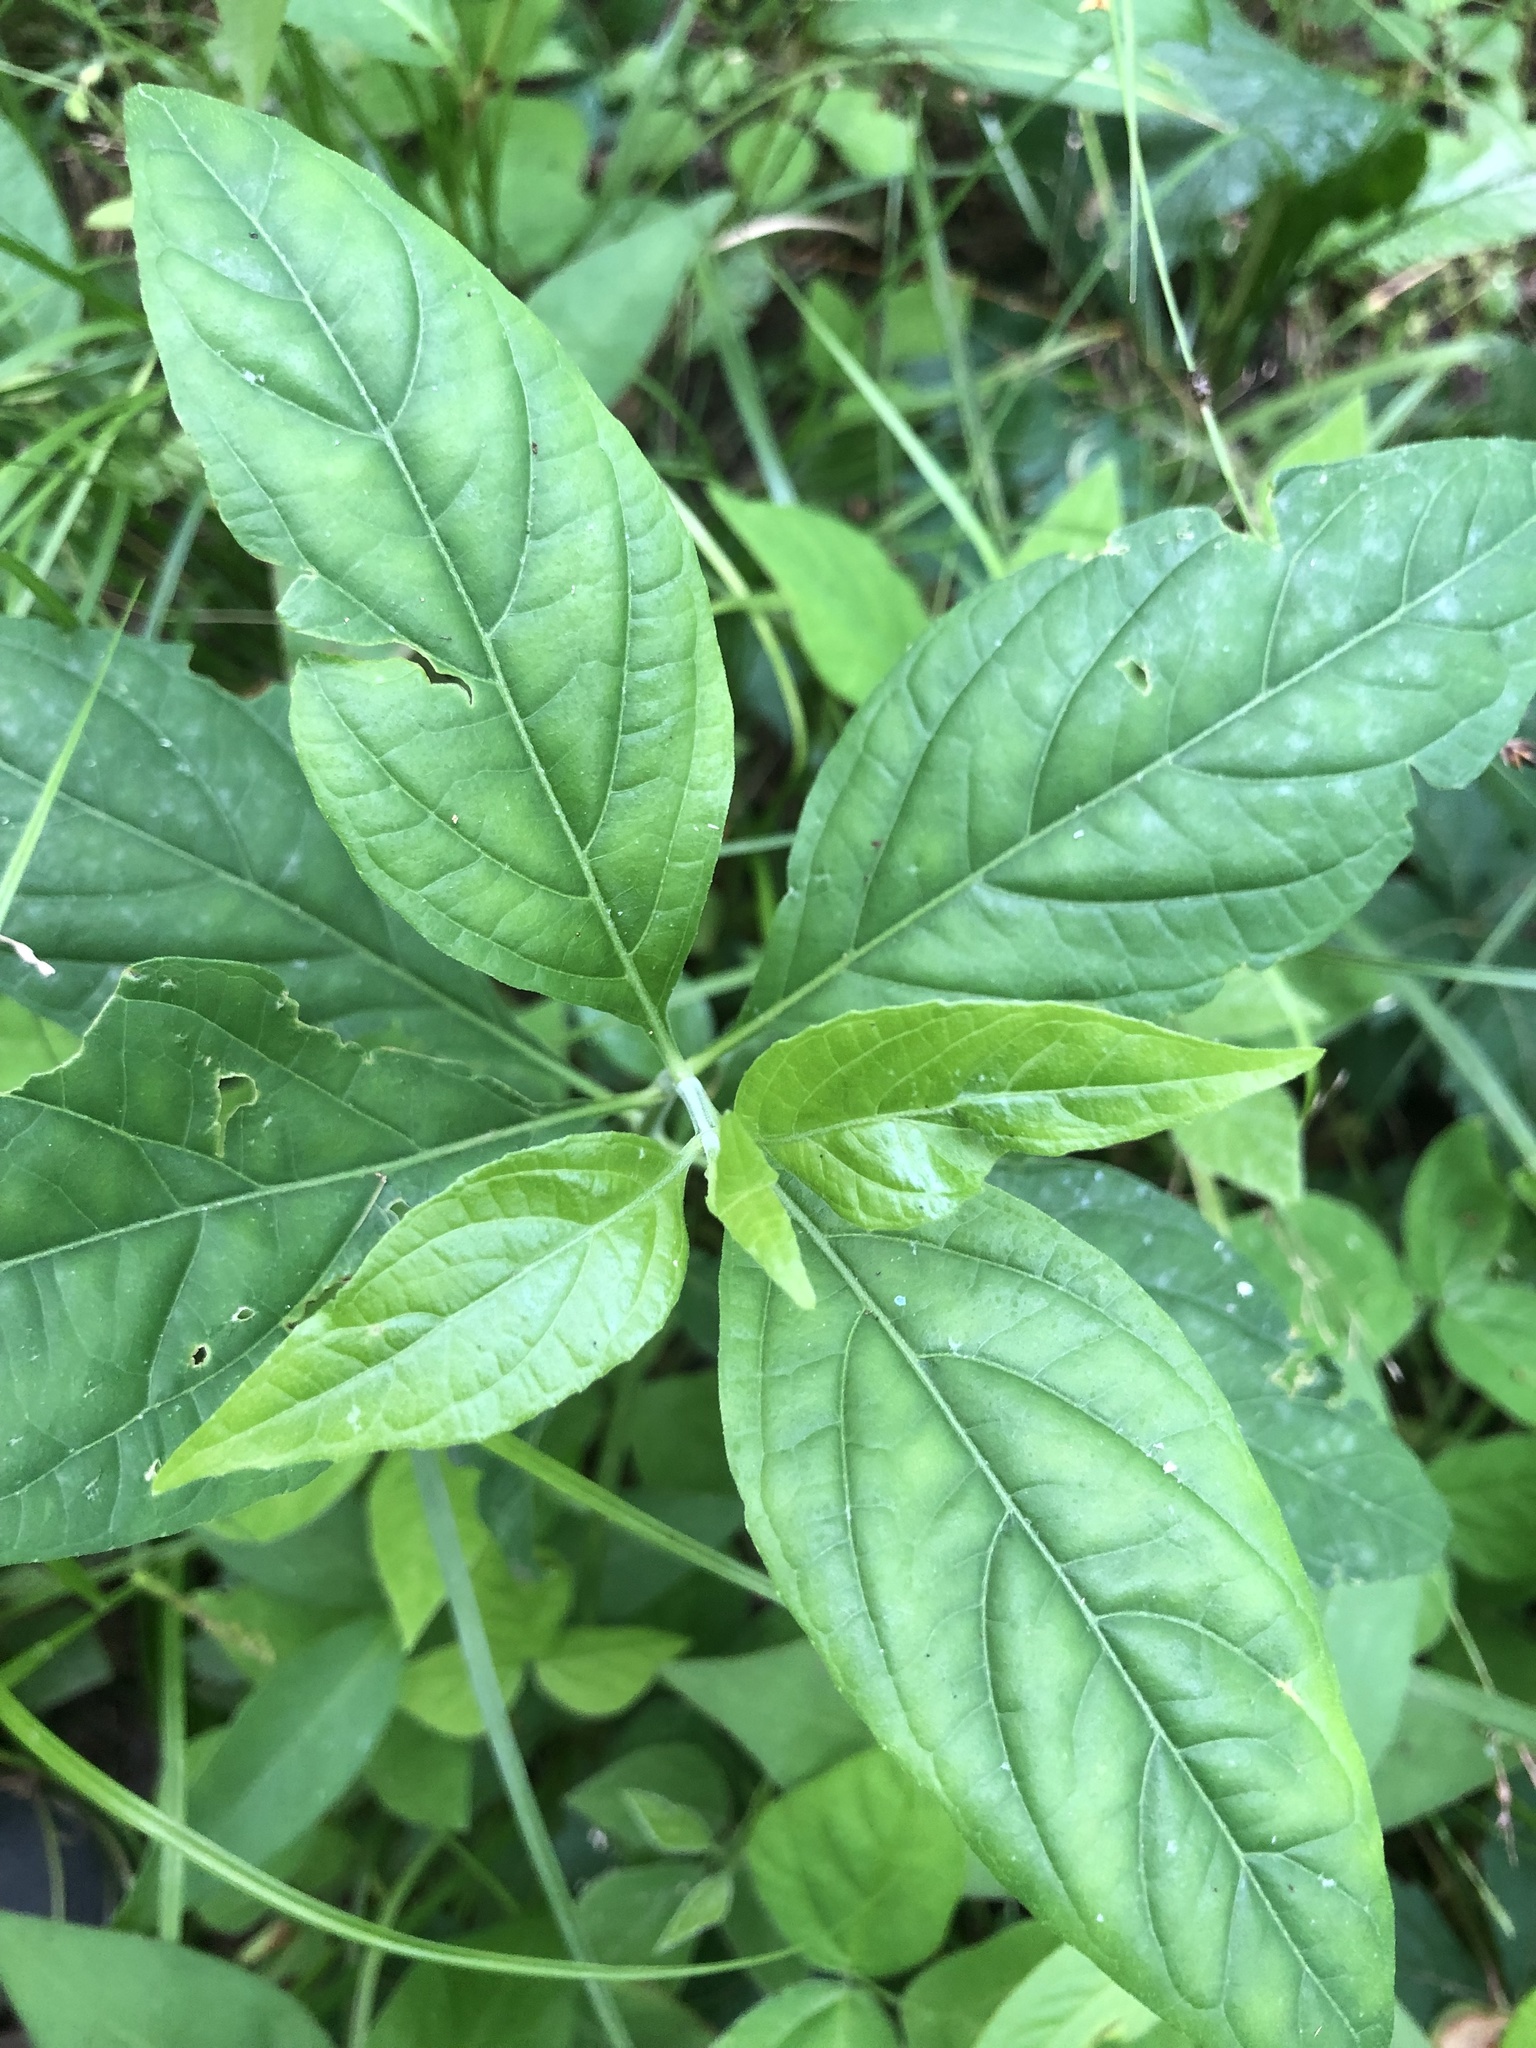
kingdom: Plantae
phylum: Tracheophyta
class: Magnoliopsida
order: Lamiales
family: Acanthaceae
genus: Yeatesia
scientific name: Yeatesia viridiflora
